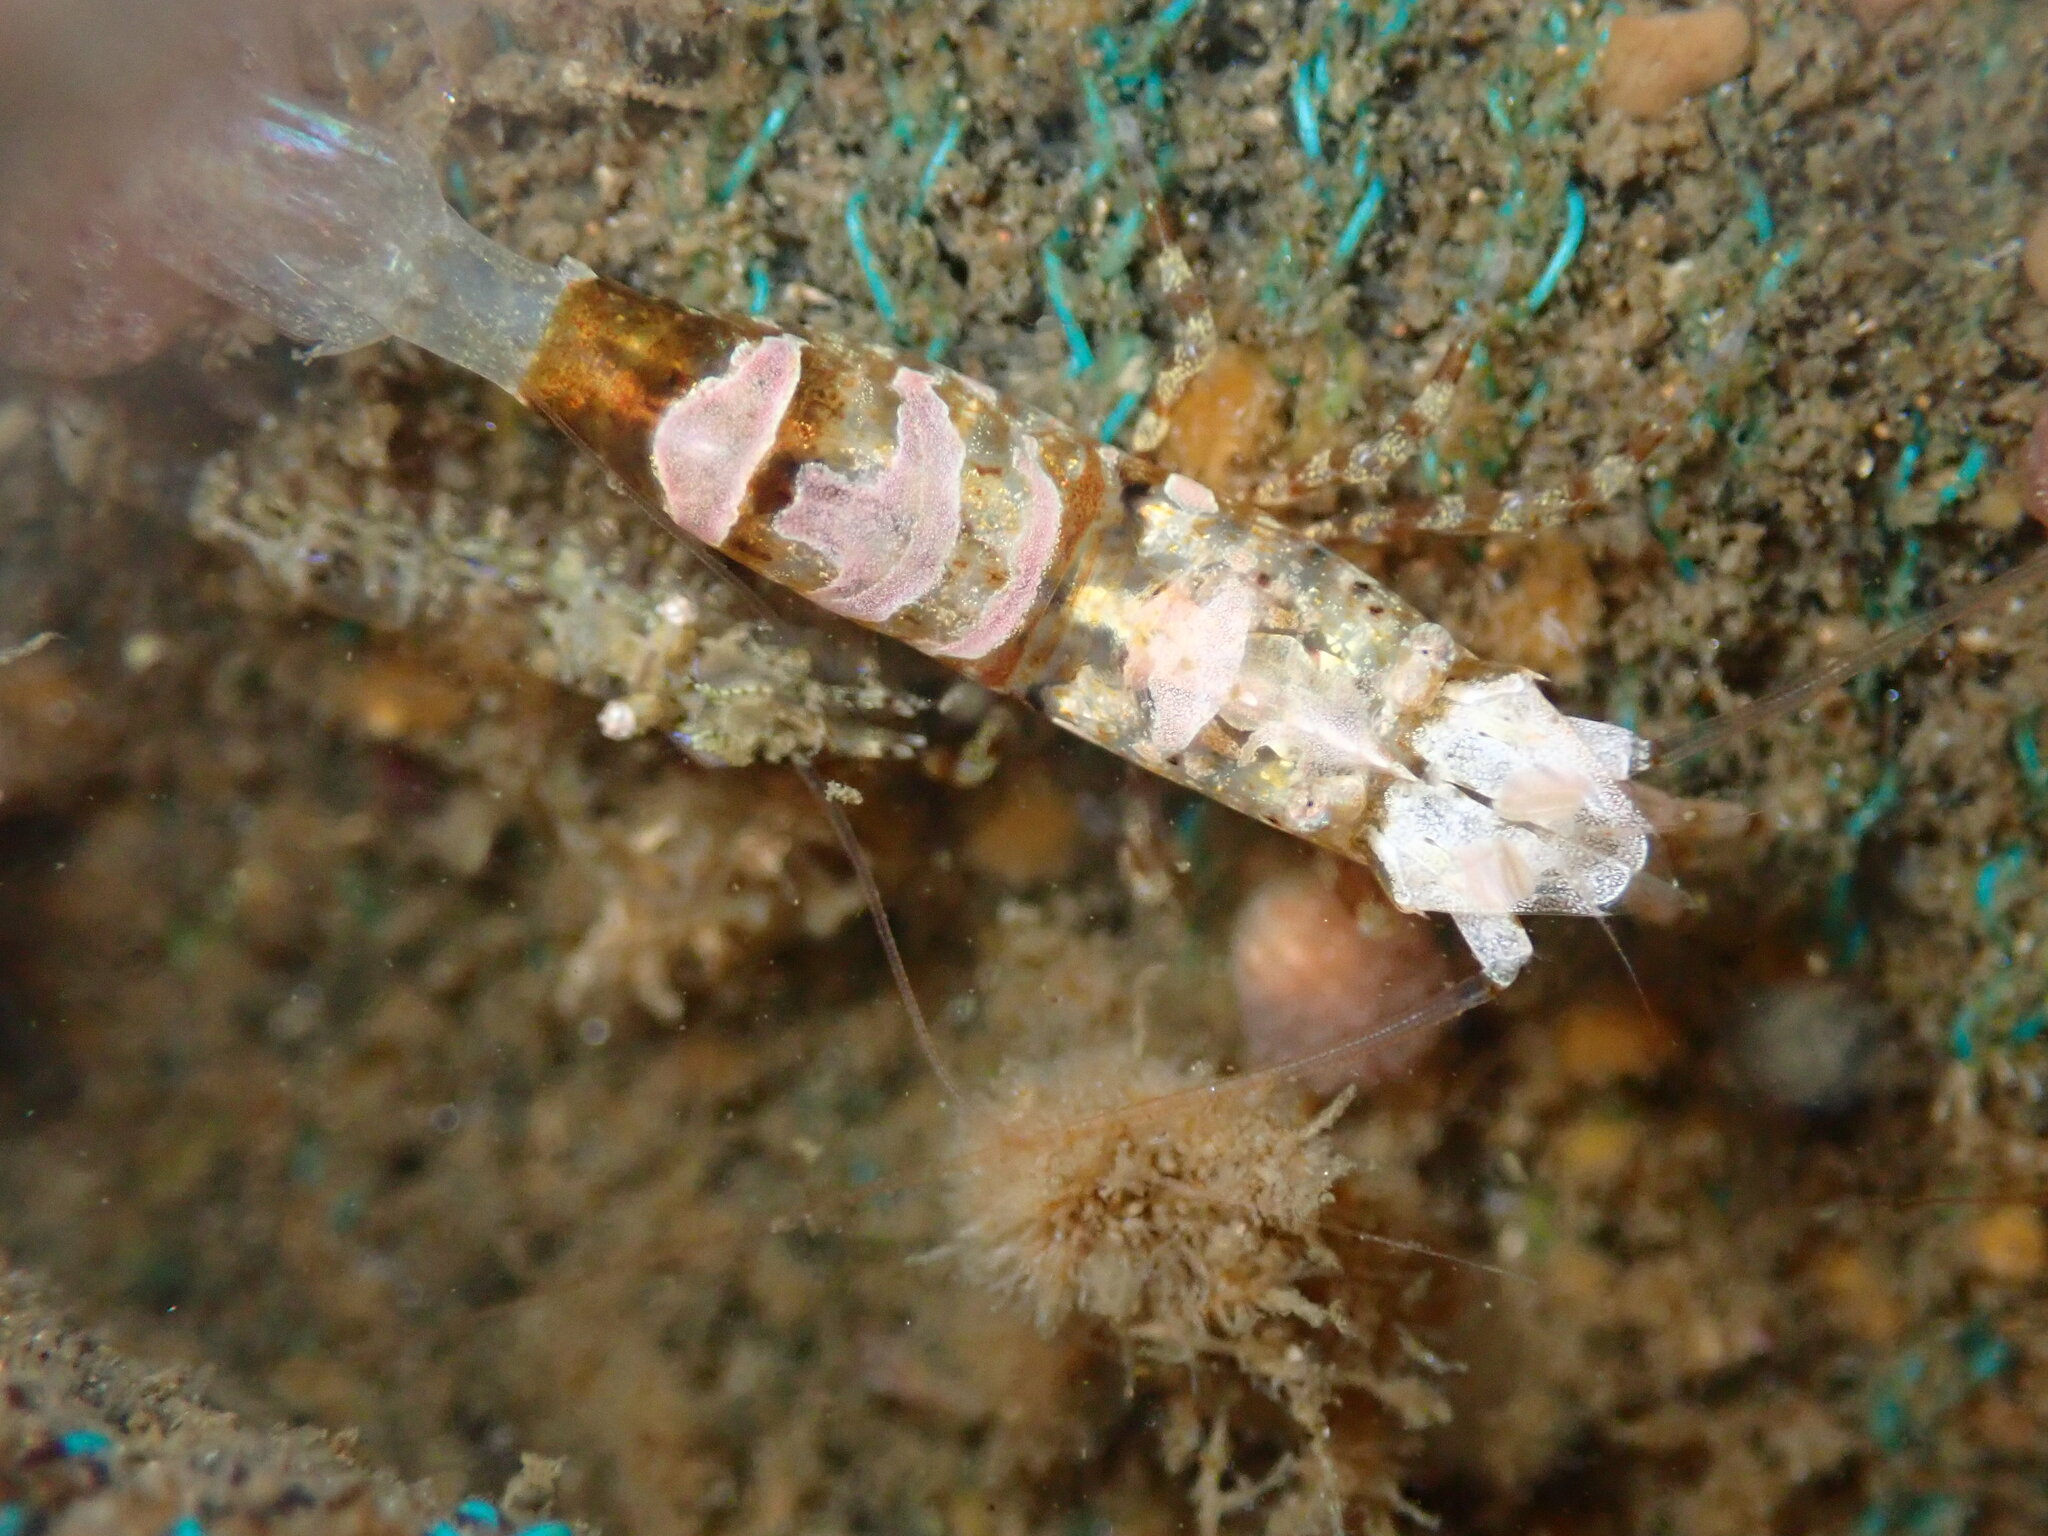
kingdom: Animalia
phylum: Arthropoda
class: Malacostraca
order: Decapoda
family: Thoridae
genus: Heptacarpus
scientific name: Heptacarpus taylori
